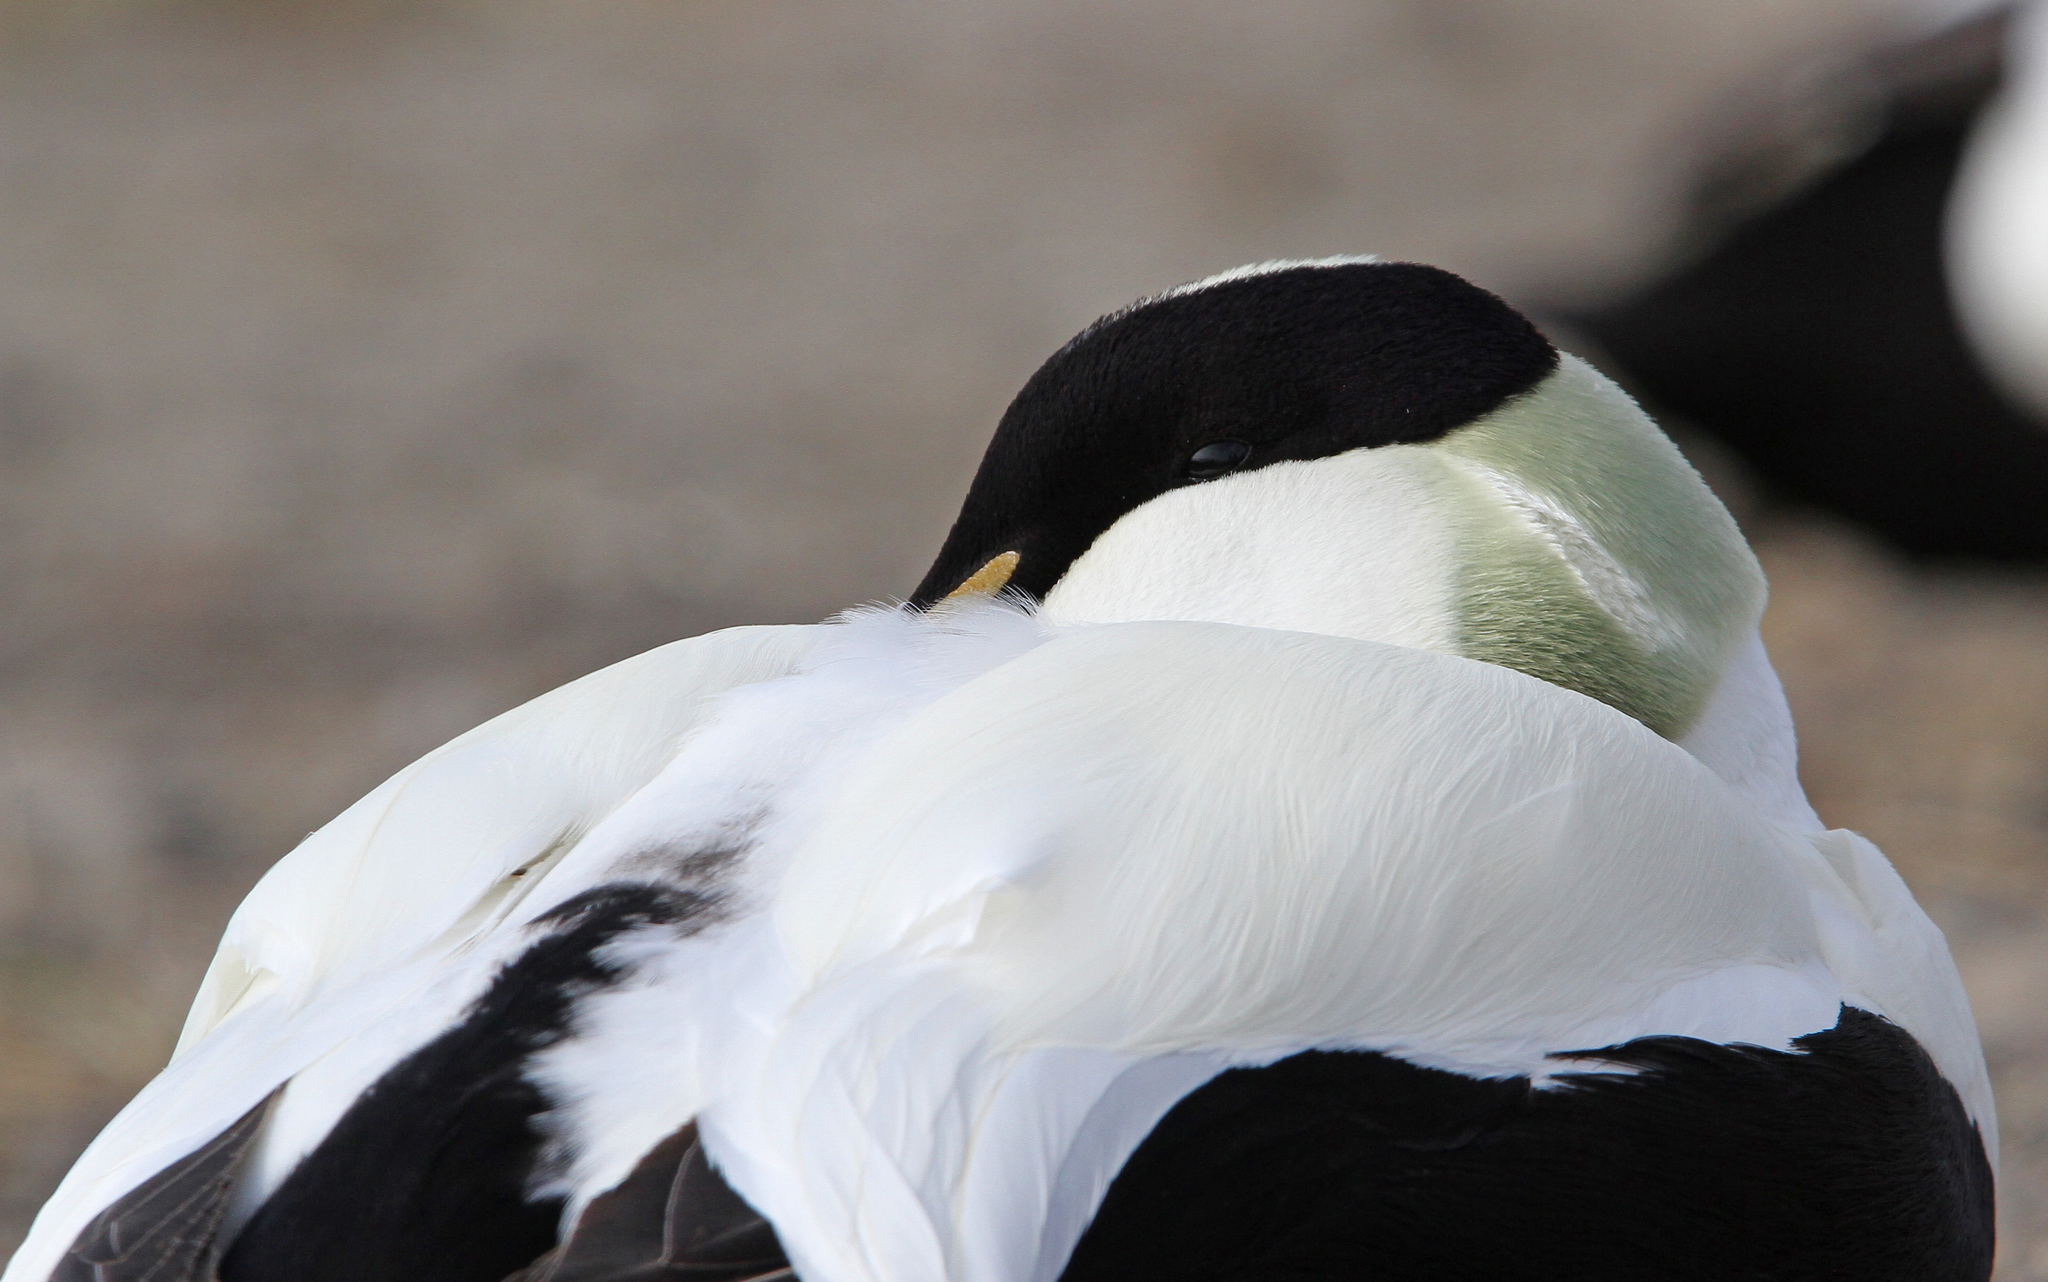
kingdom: Animalia
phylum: Chordata
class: Aves
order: Anseriformes
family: Anatidae
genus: Somateria
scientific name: Somateria mollissima
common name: Common eider
